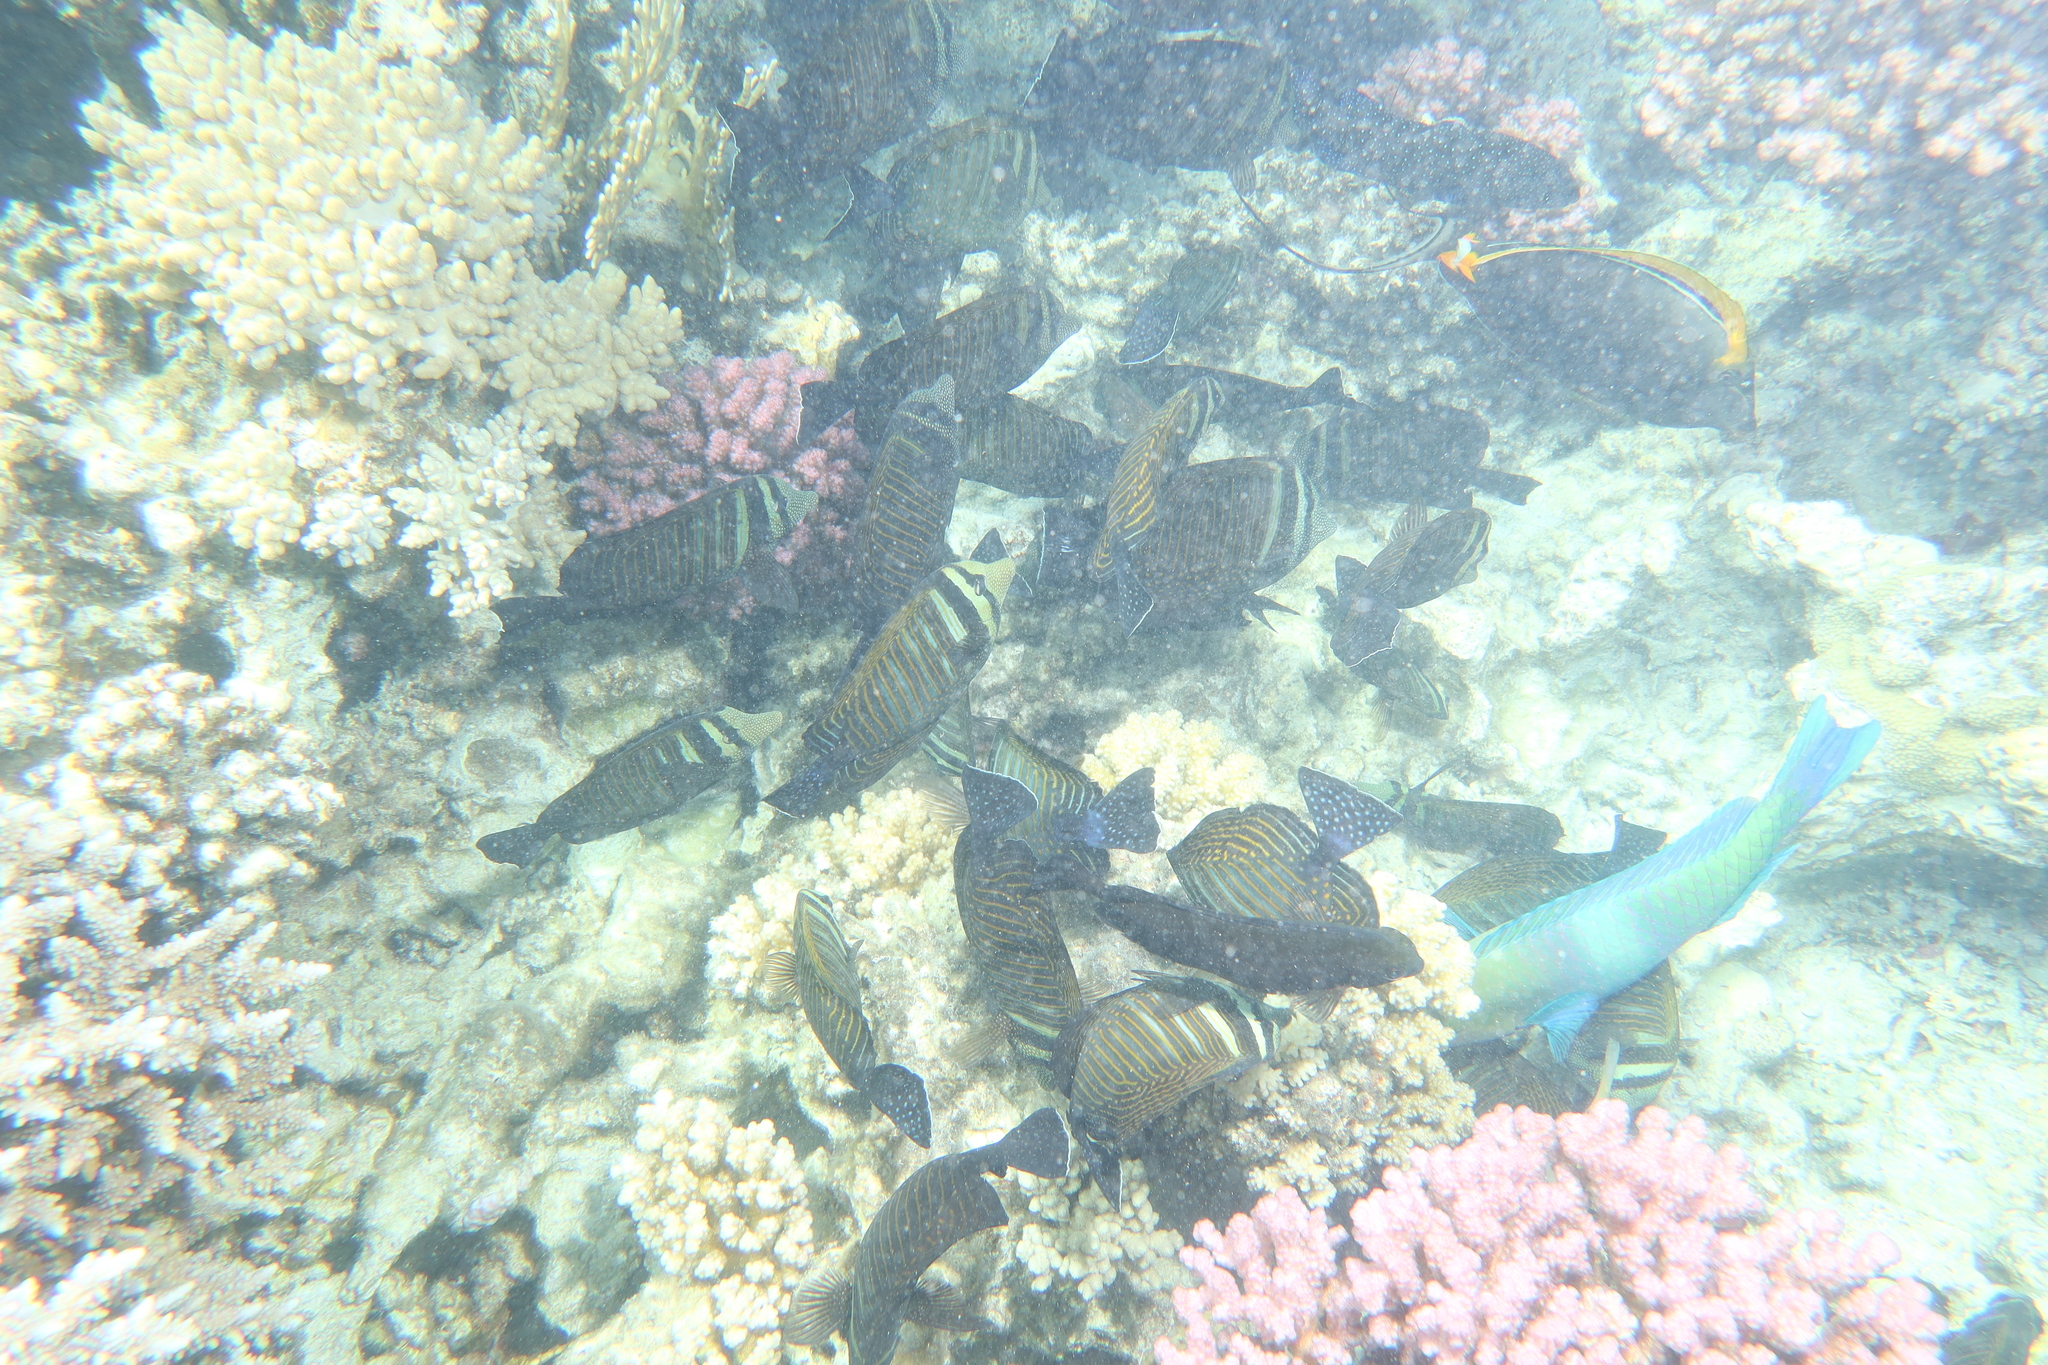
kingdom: Animalia
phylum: Chordata
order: Perciformes
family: Acanthuridae
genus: Zebrasoma
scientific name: Zebrasoma desjardinii
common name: Desjardin's sailfin tang
